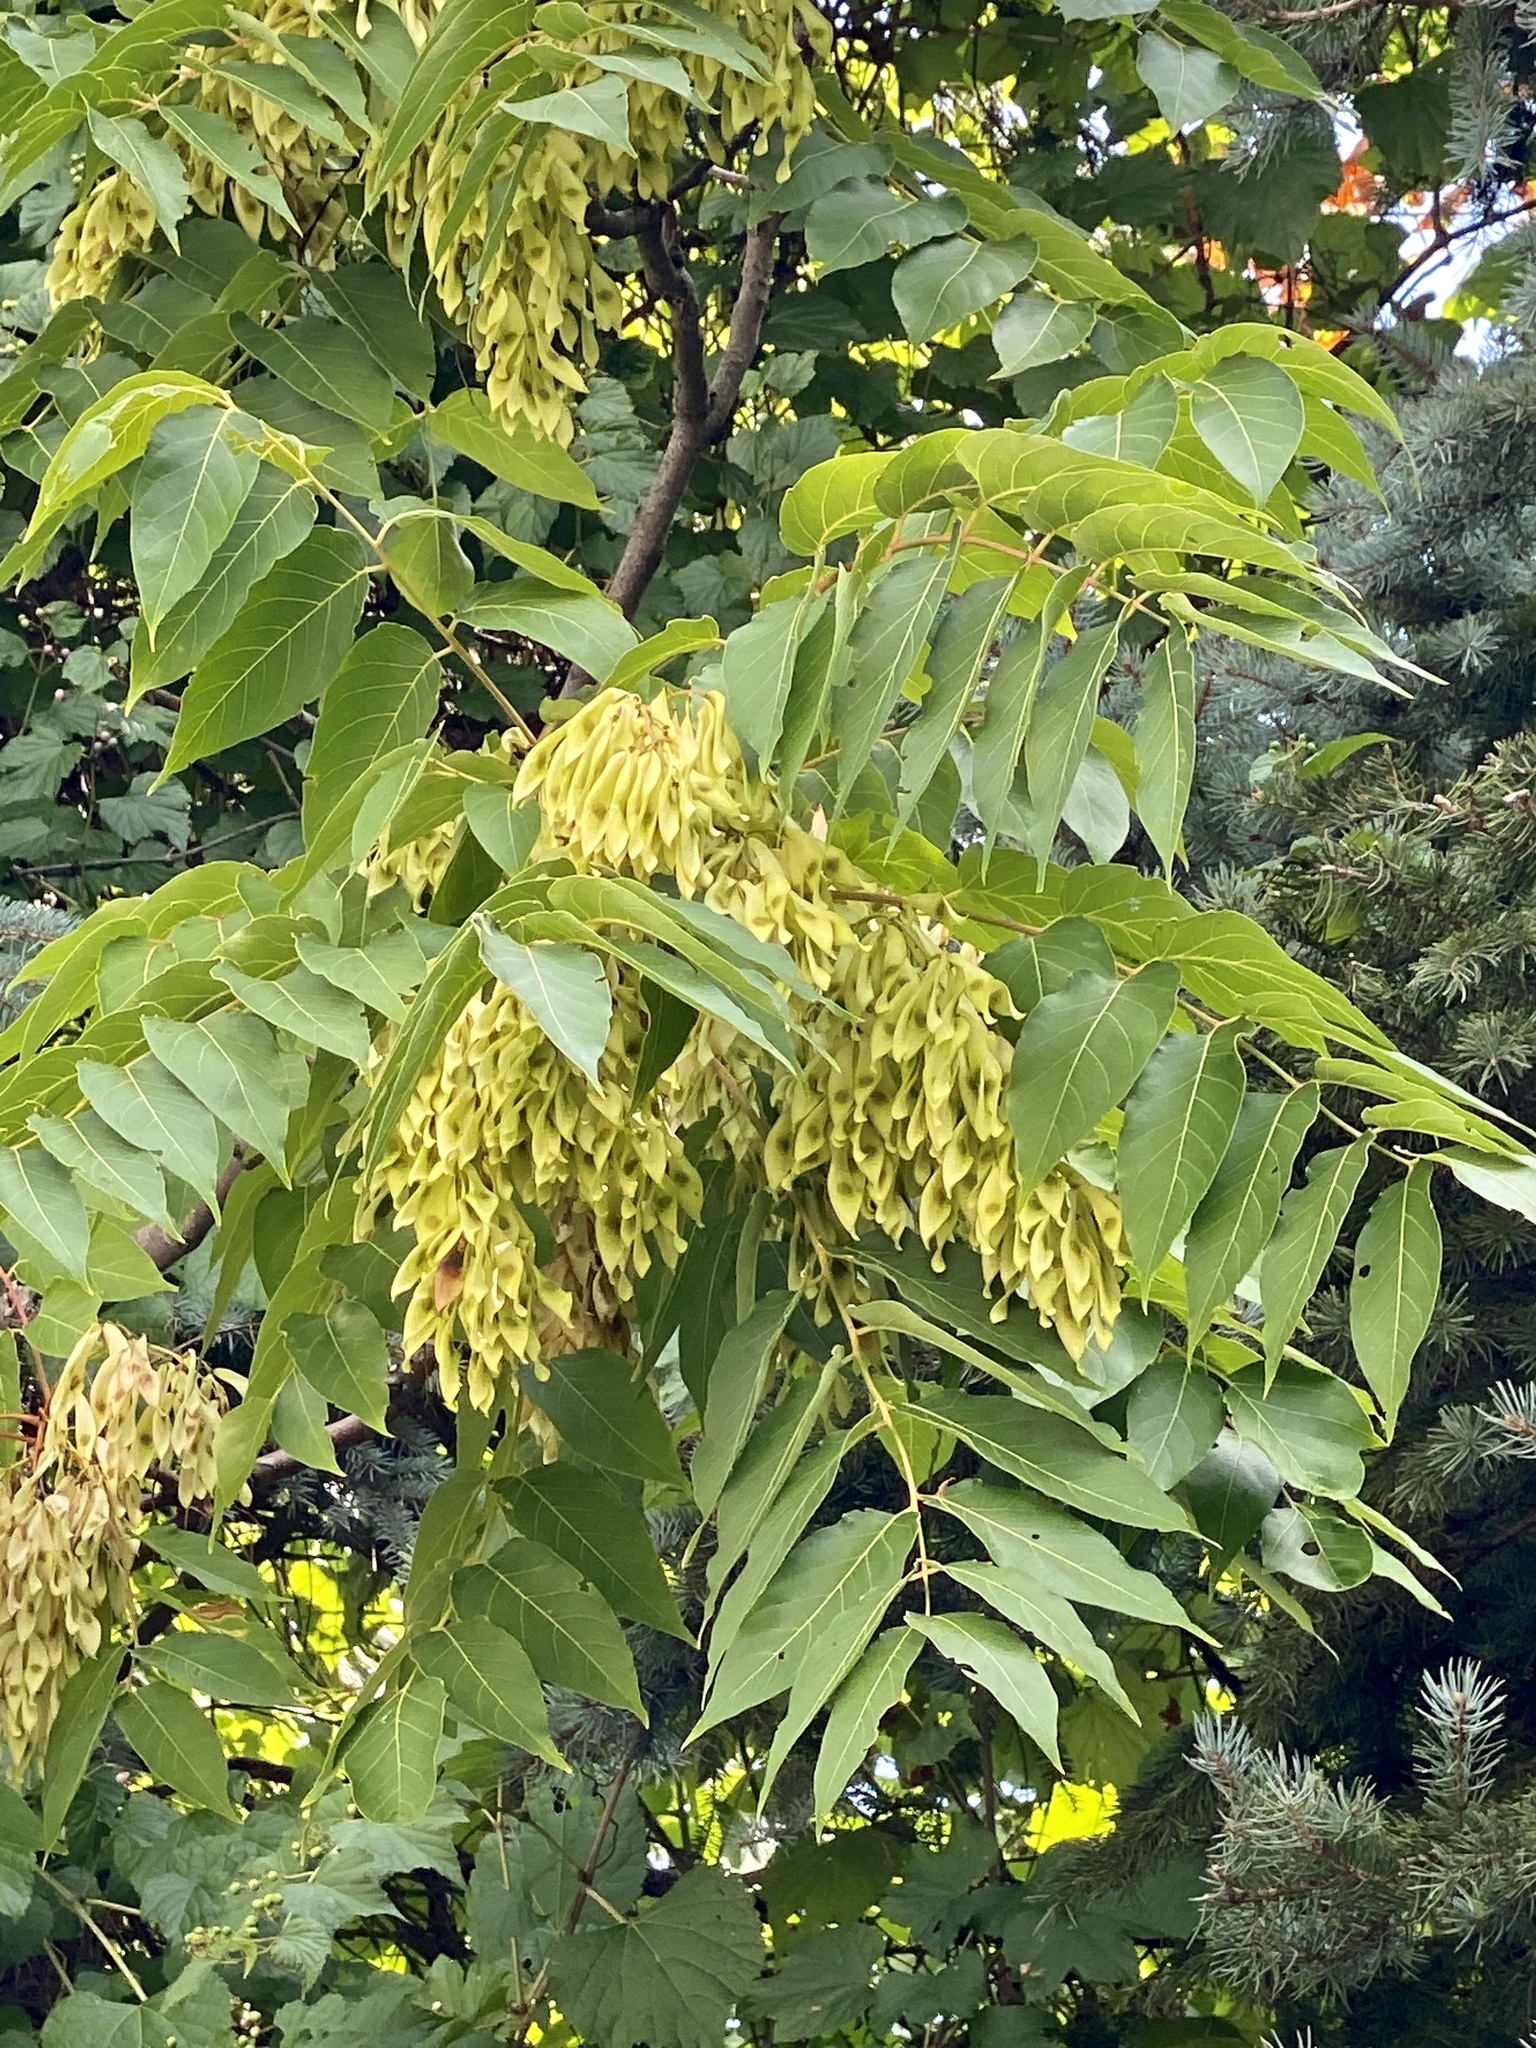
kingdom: Plantae
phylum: Tracheophyta
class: Magnoliopsida
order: Sapindales
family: Simaroubaceae
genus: Ailanthus
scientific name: Ailanthus altissima
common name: Tree-of-heaven
